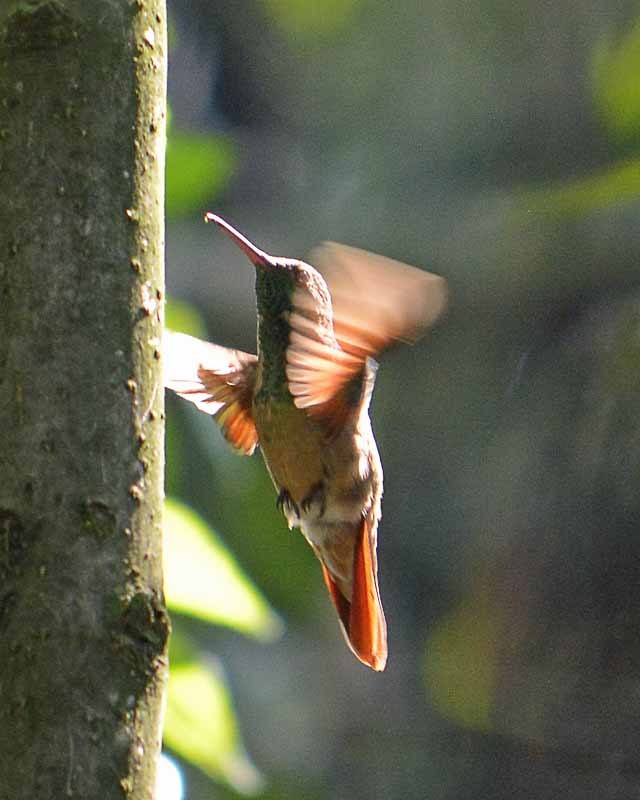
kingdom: Animalia
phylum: Chordata
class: Aves
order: Apodiformes
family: Trochilidae
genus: Saucerottia
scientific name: Saucerottia beryllina
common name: Berylline hummingbird
